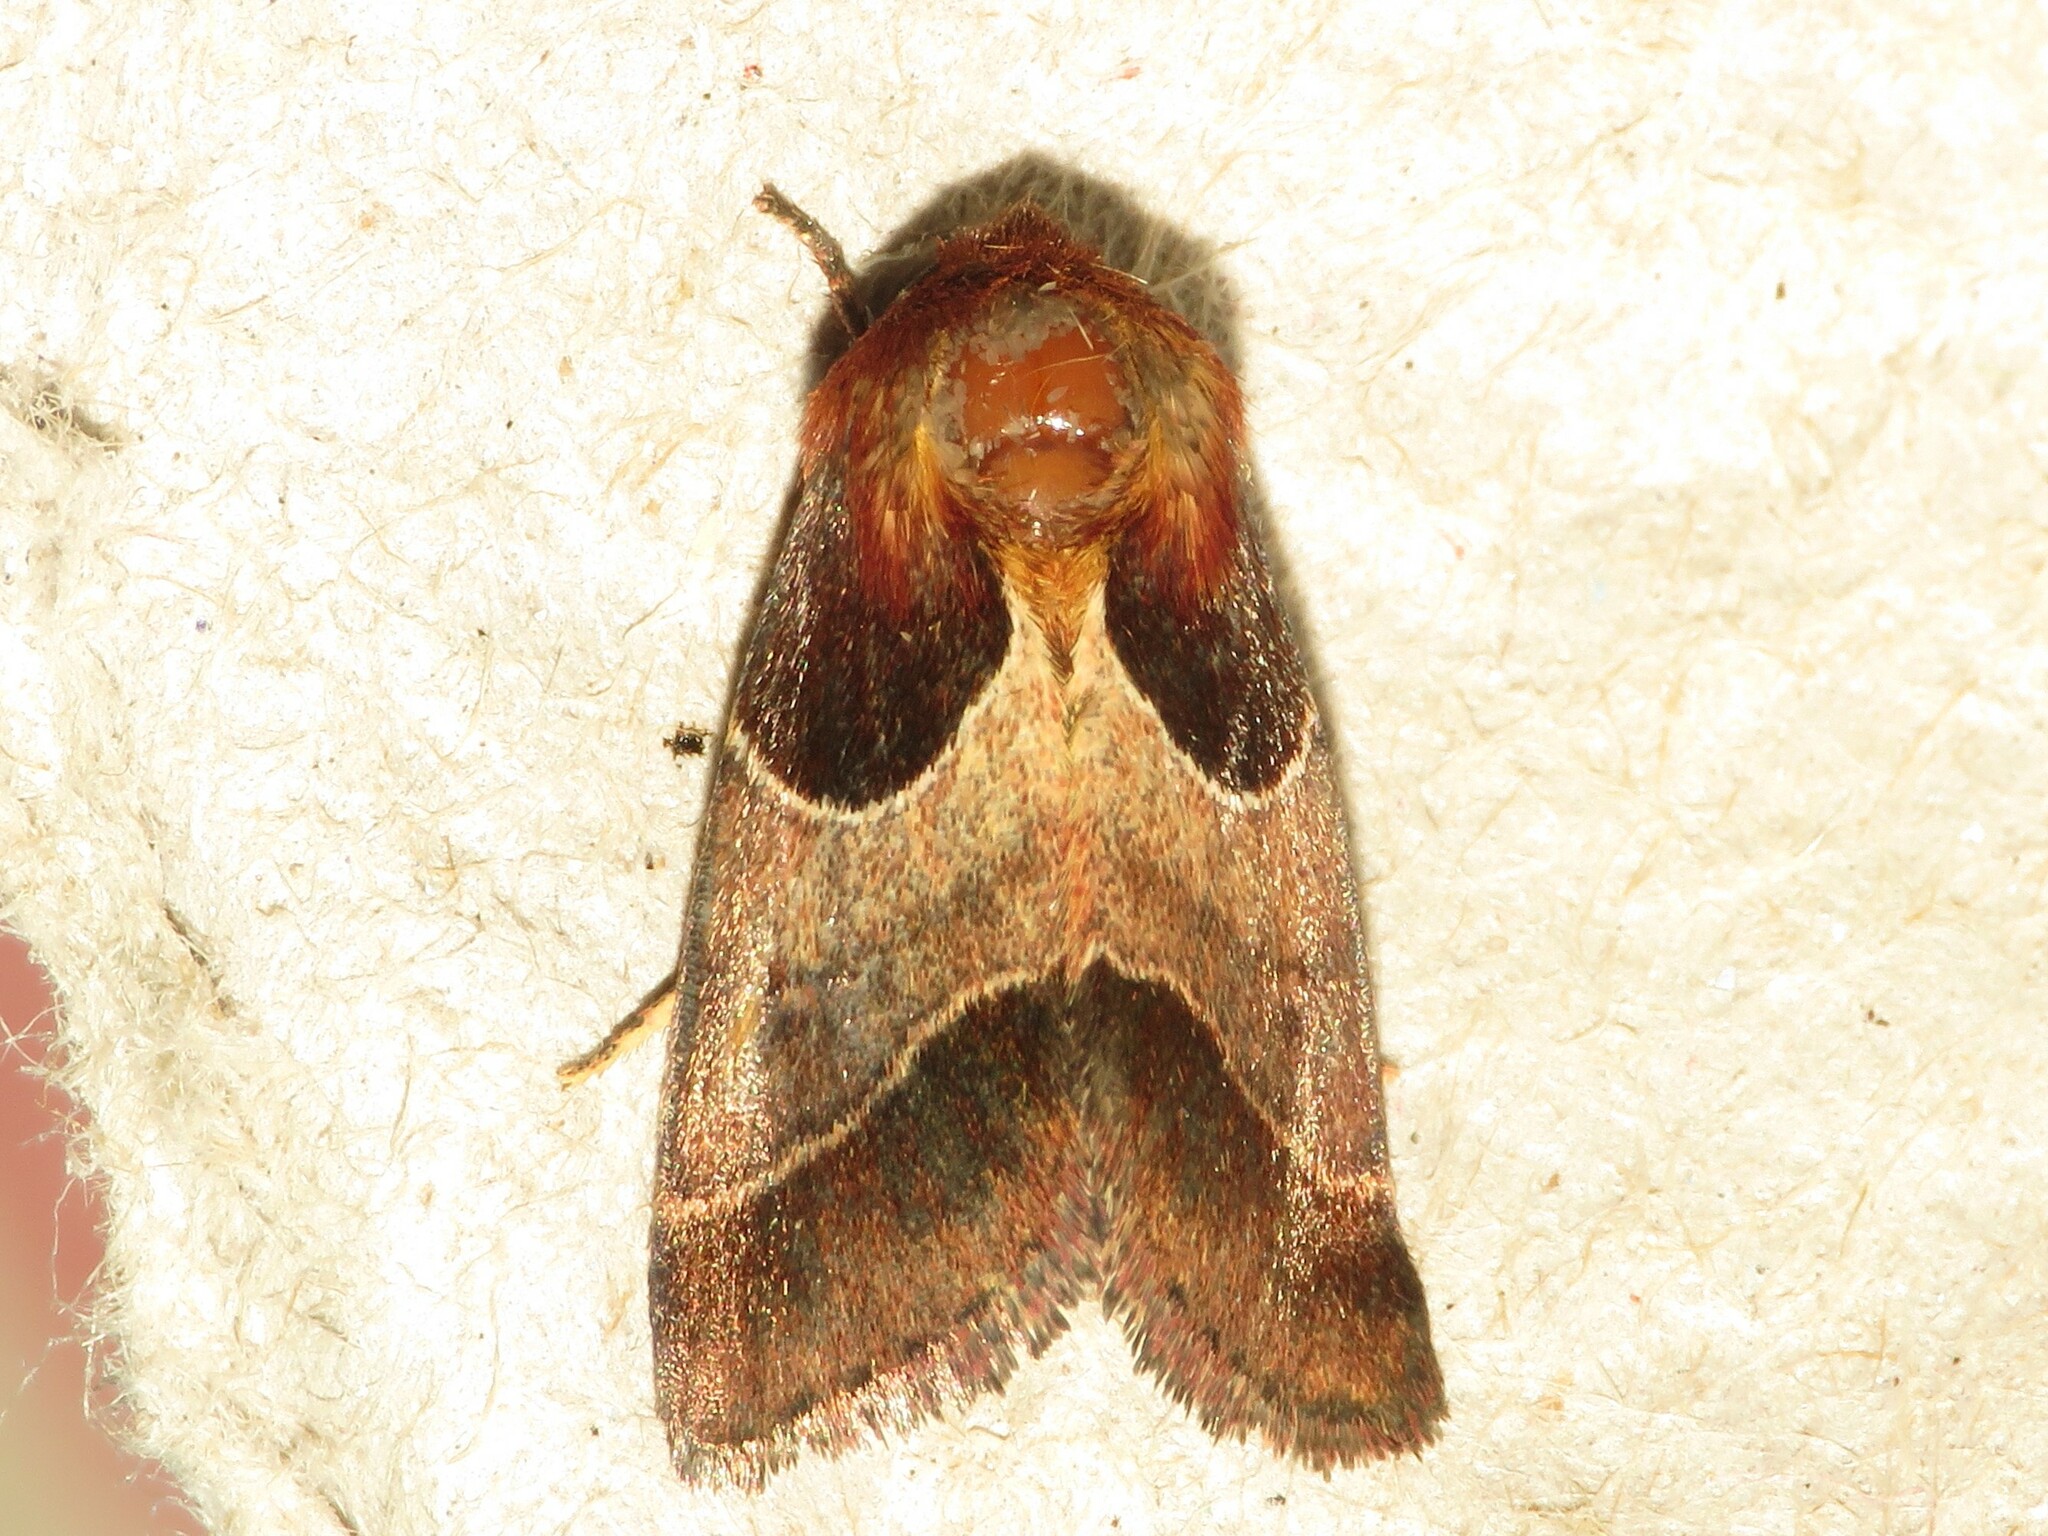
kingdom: Animalia
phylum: Arthropoda
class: Insecta
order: Lepidoptera
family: Noctuidae
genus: Schinia
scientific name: Schinia arcigera
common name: Arcigera flower moth
